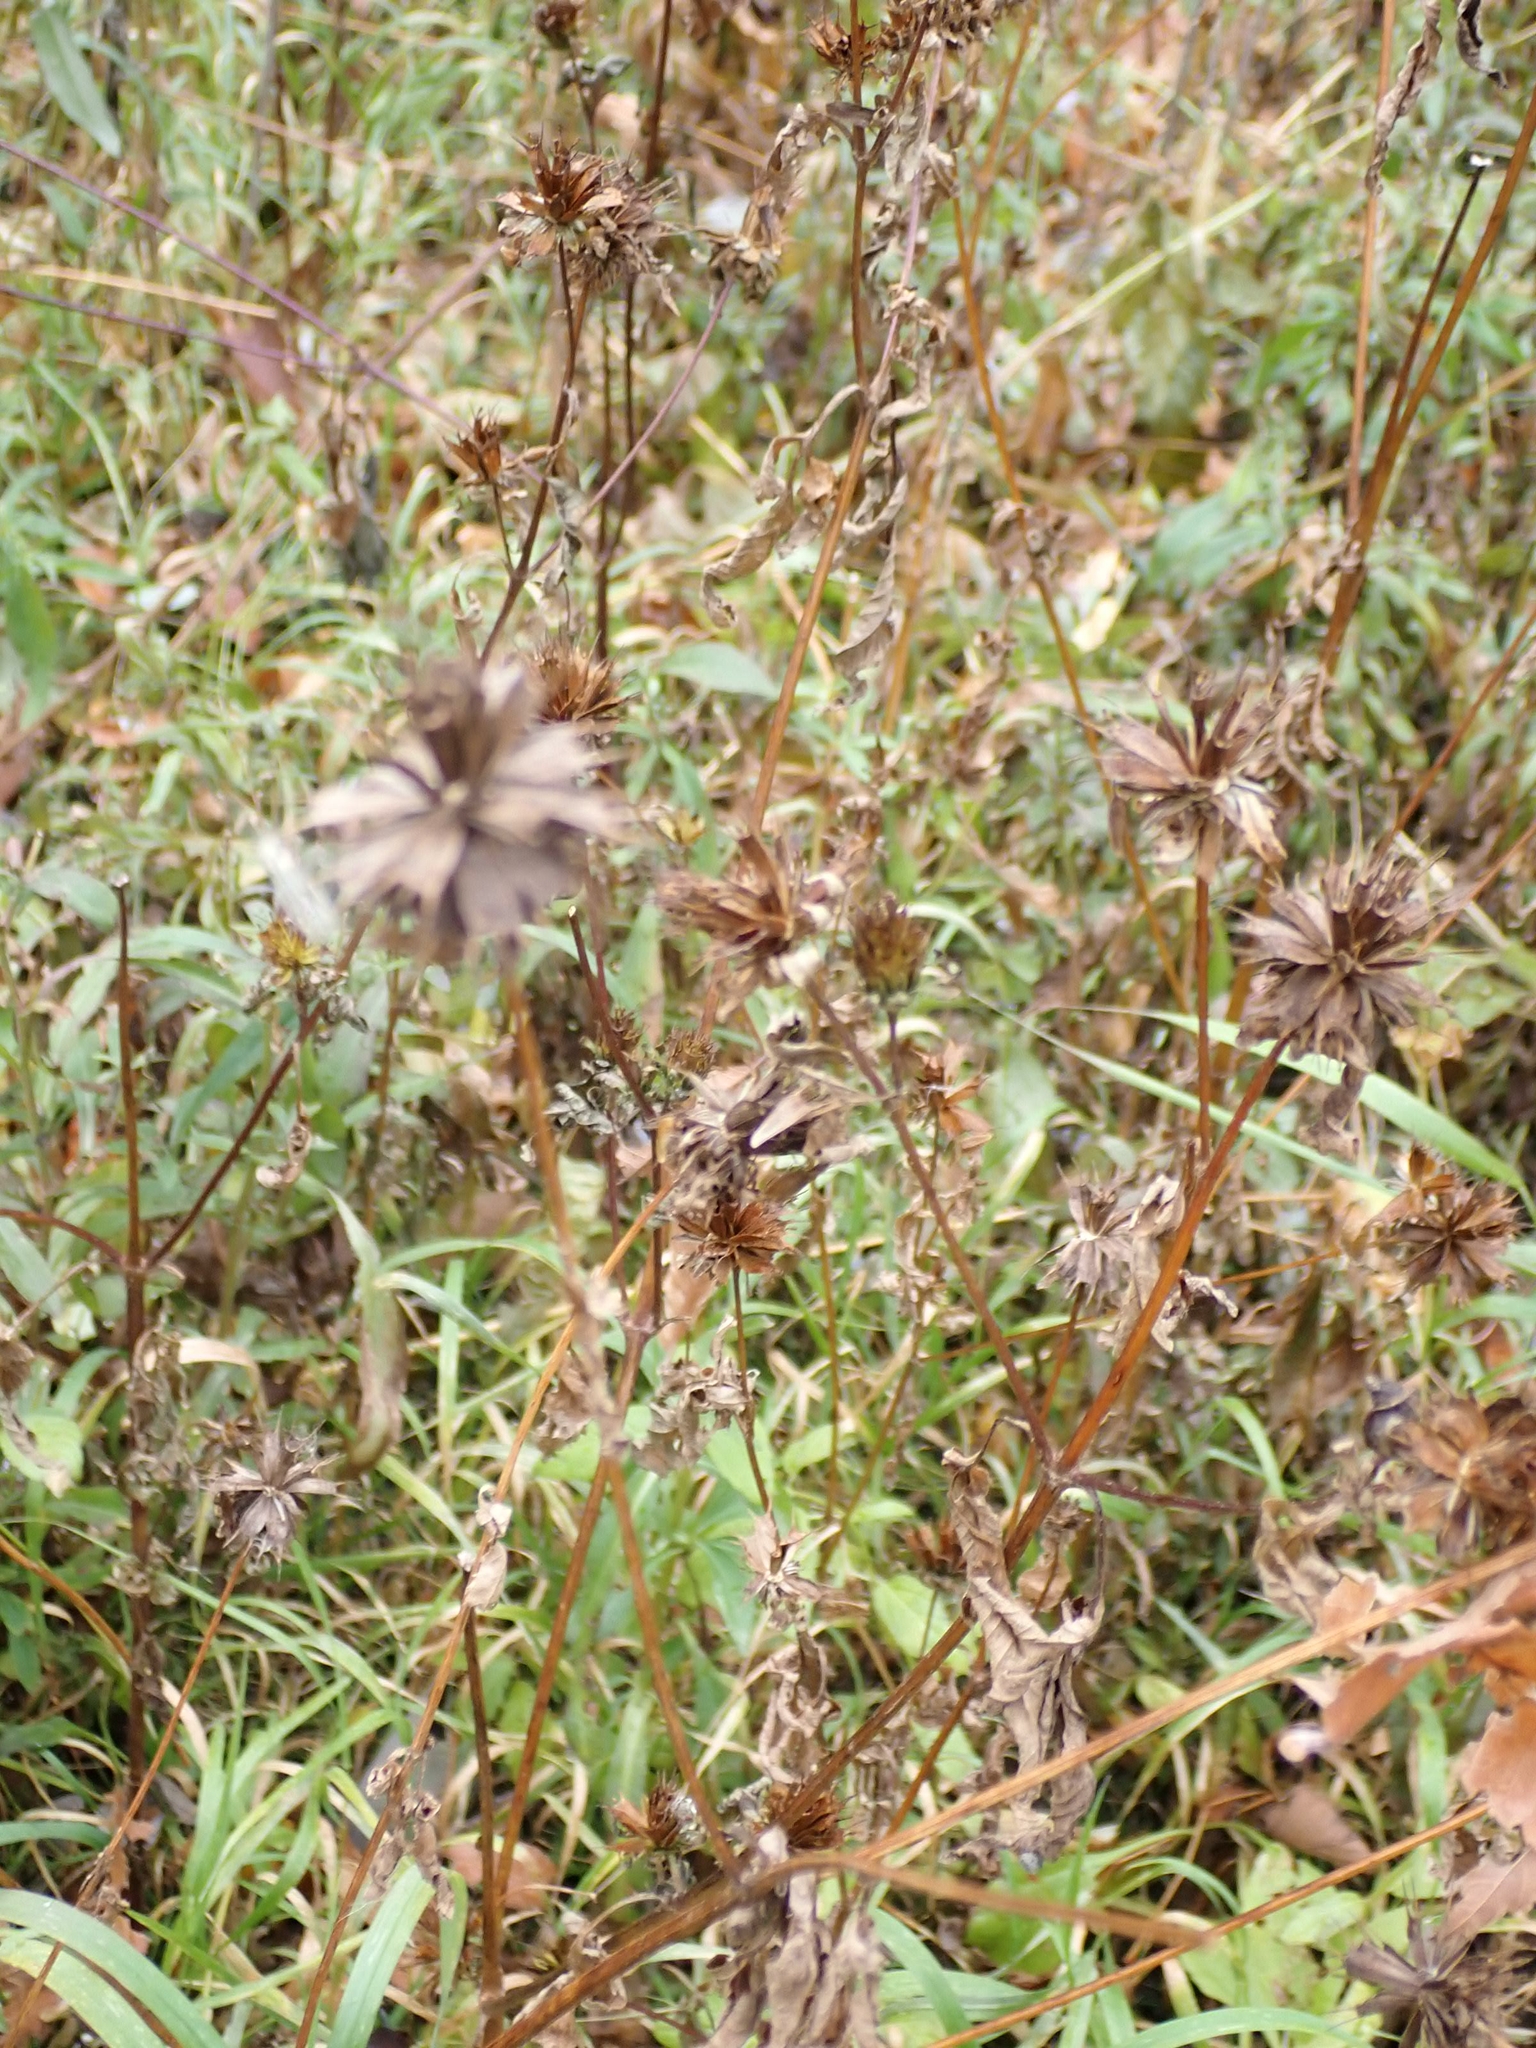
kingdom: Plantae
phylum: Tracheophyta
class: Magnoliopsida
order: Asterales
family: Asteraceae
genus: Bidens
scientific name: Bidens frondosa
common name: Beggarticks
